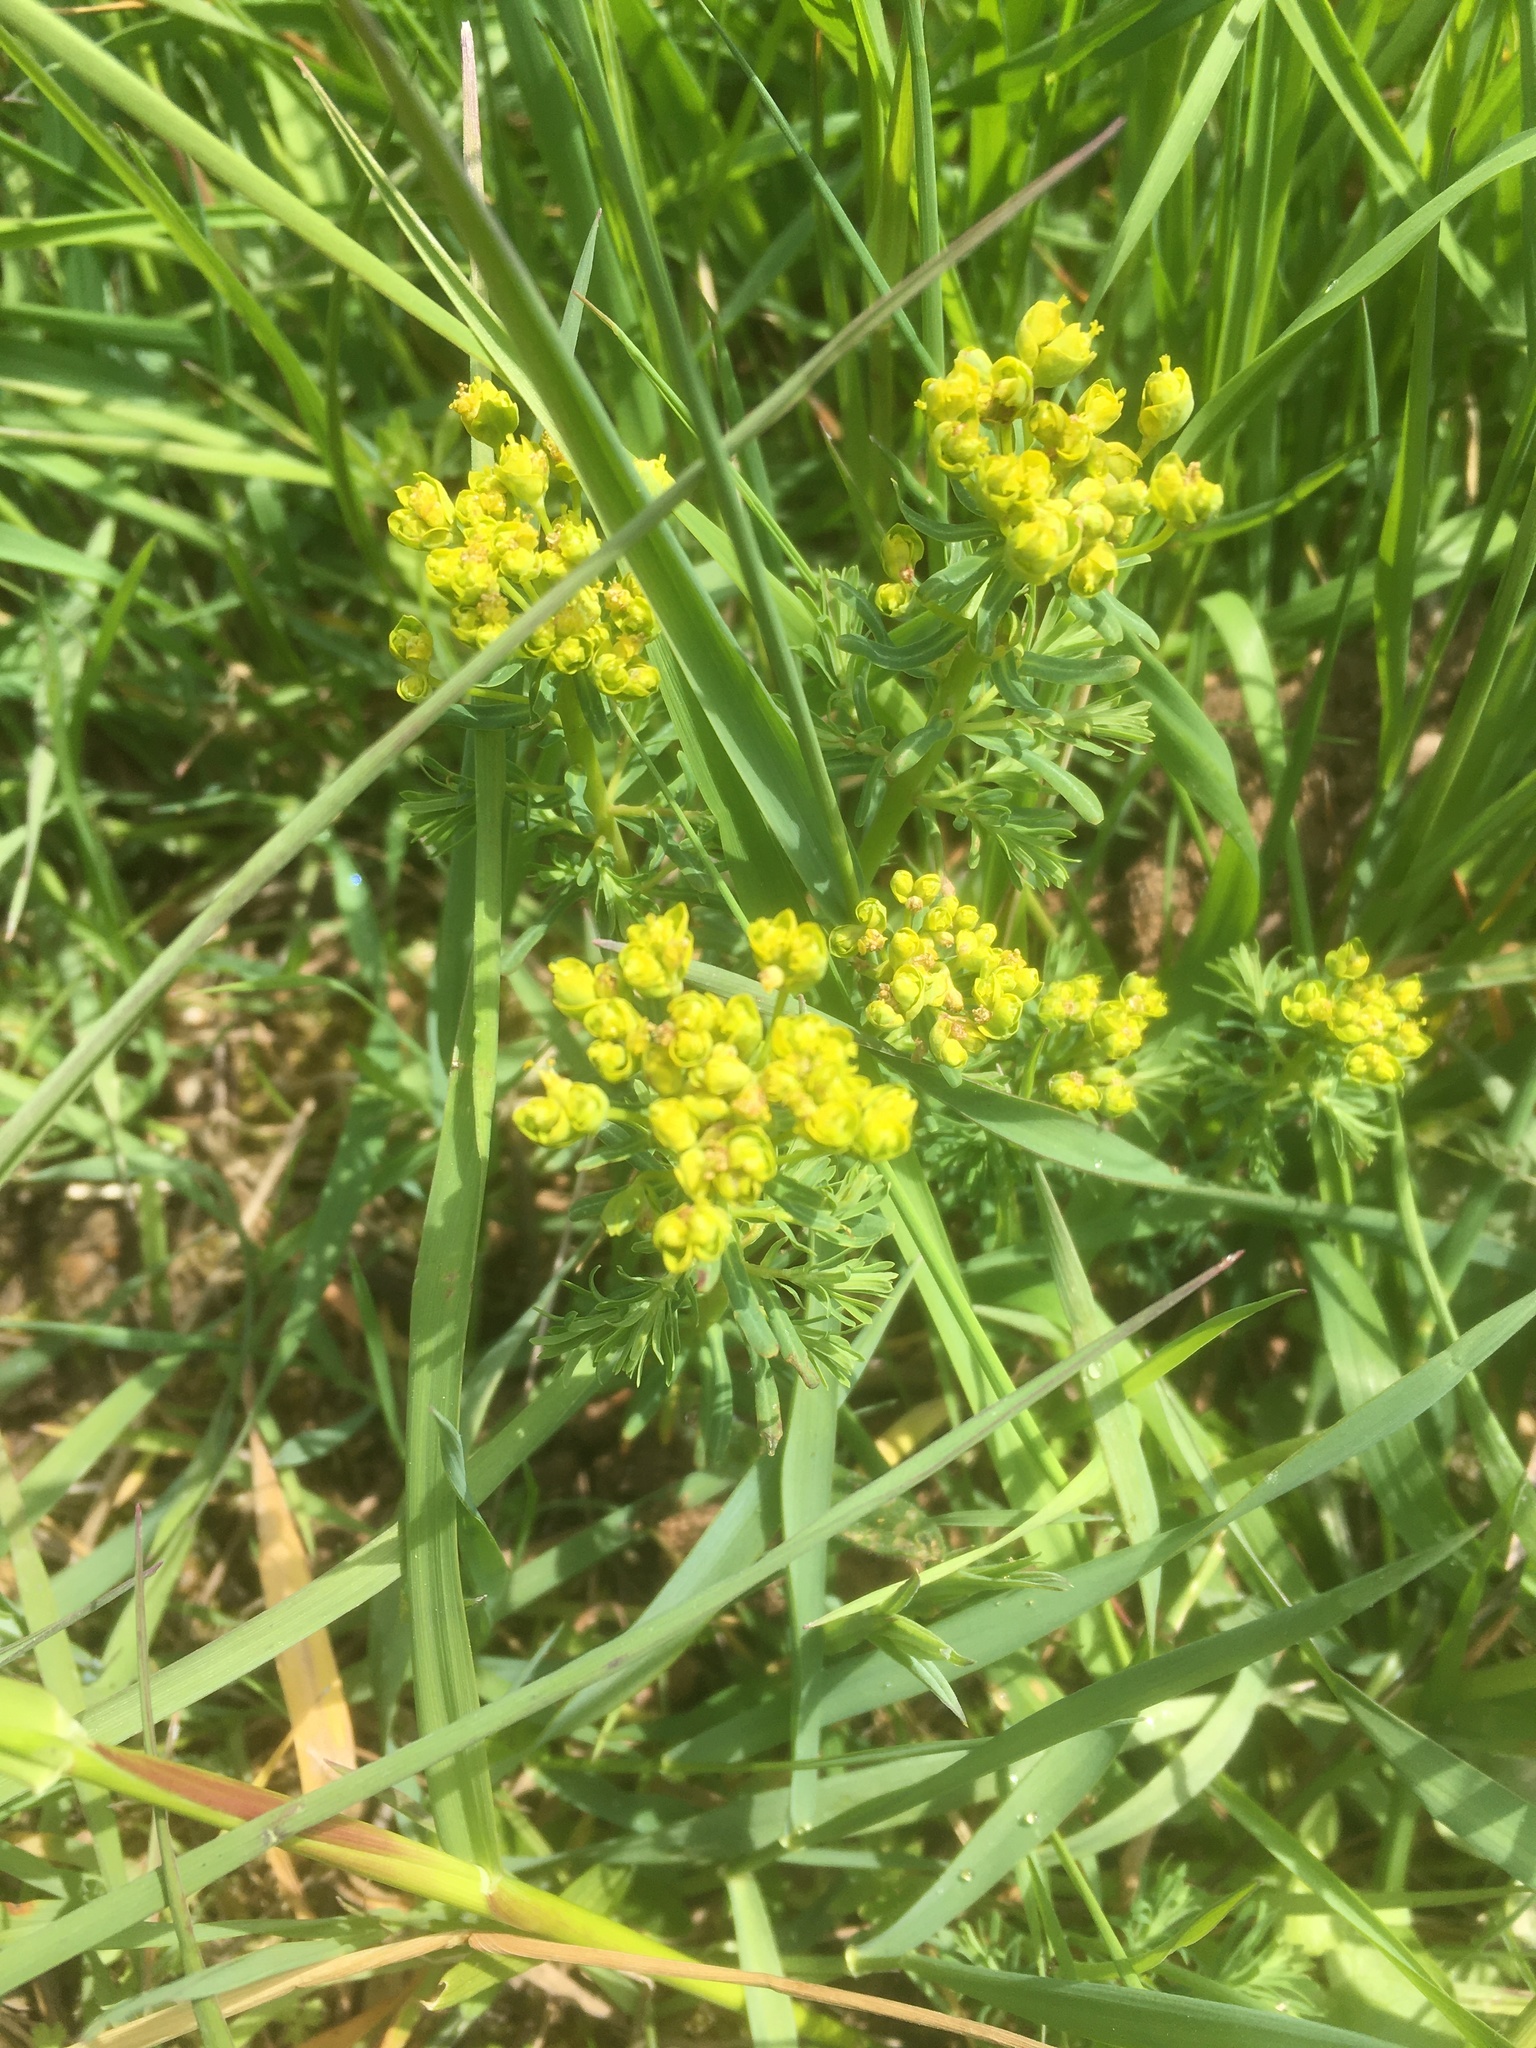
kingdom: Plantae
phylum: Tracheophyta
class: Magnoliopsida
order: Malpighiales
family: Euphorbiaceae
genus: Euphorbia
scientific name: Euphorbia cyparissias
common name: Cypress spurge
